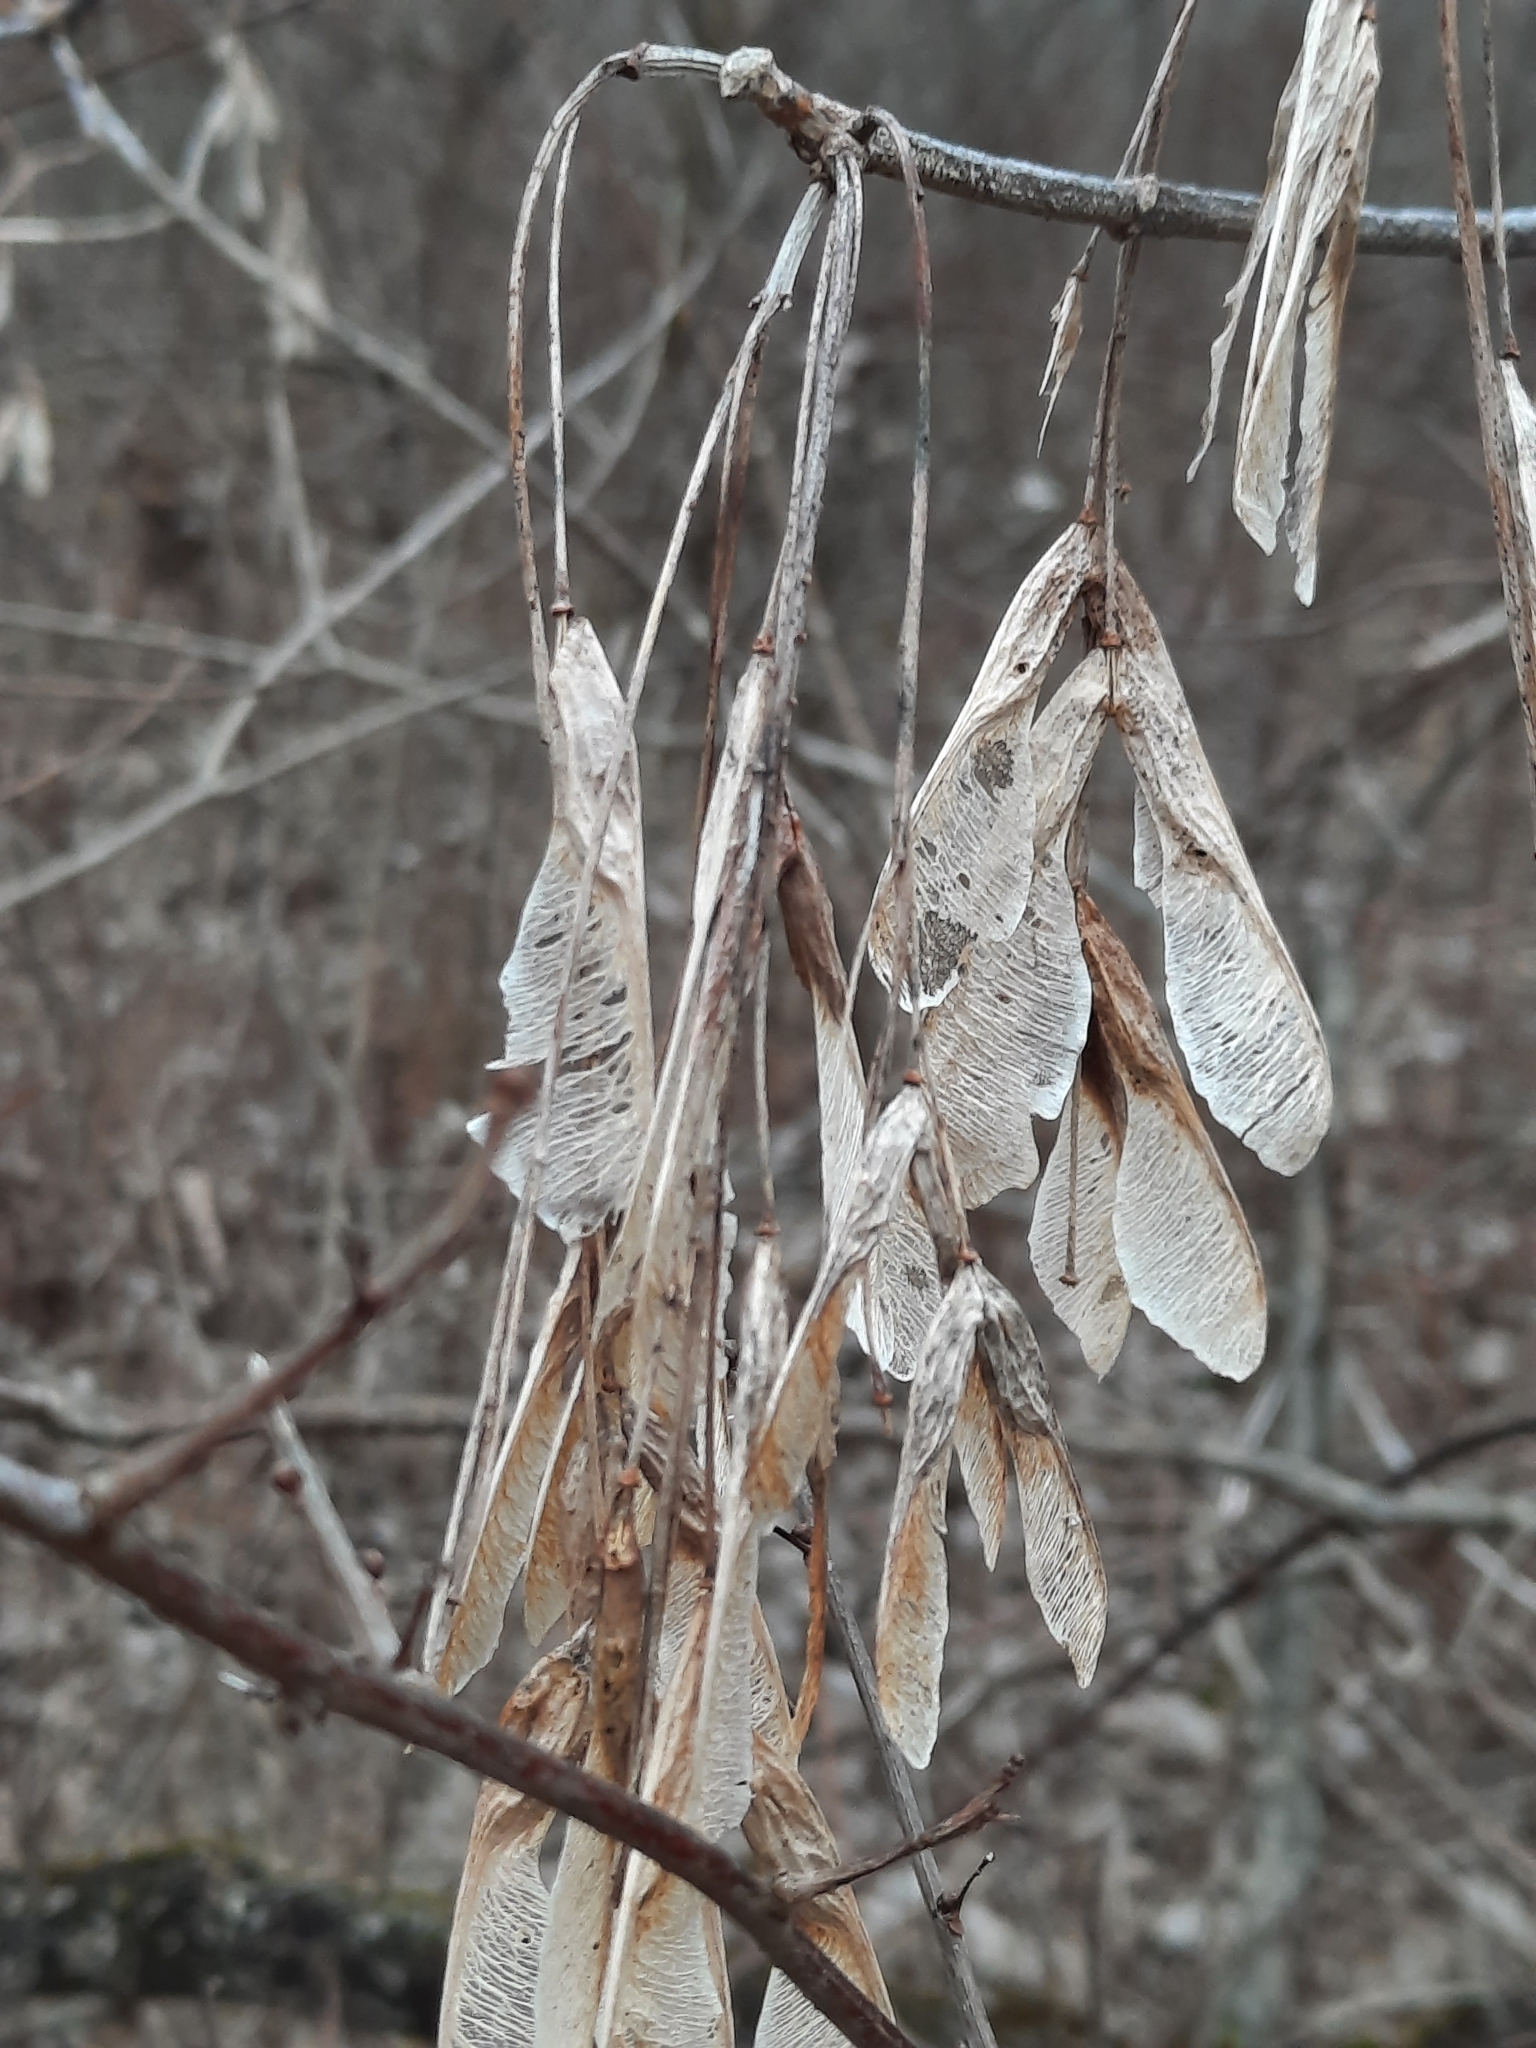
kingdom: Plantae
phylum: Tracheophyta
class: Magnoliopsida
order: Sapindales
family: Sapindaceae
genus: Acer
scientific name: Acer negundo
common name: Ashleaf maple
